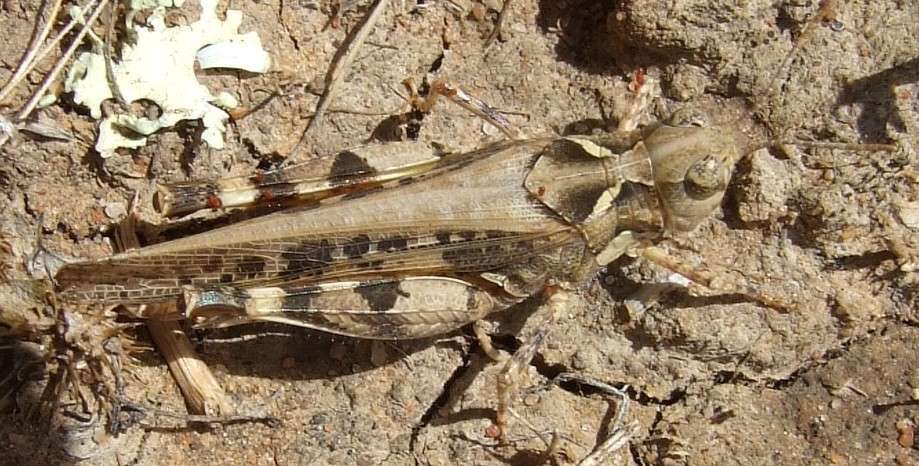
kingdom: Animalia
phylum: Arthropoda
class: Insecta
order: Orthoptera
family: Acrididae
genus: Chortoicetes
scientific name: Chortoicetes terminifera
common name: Australian plague locust
